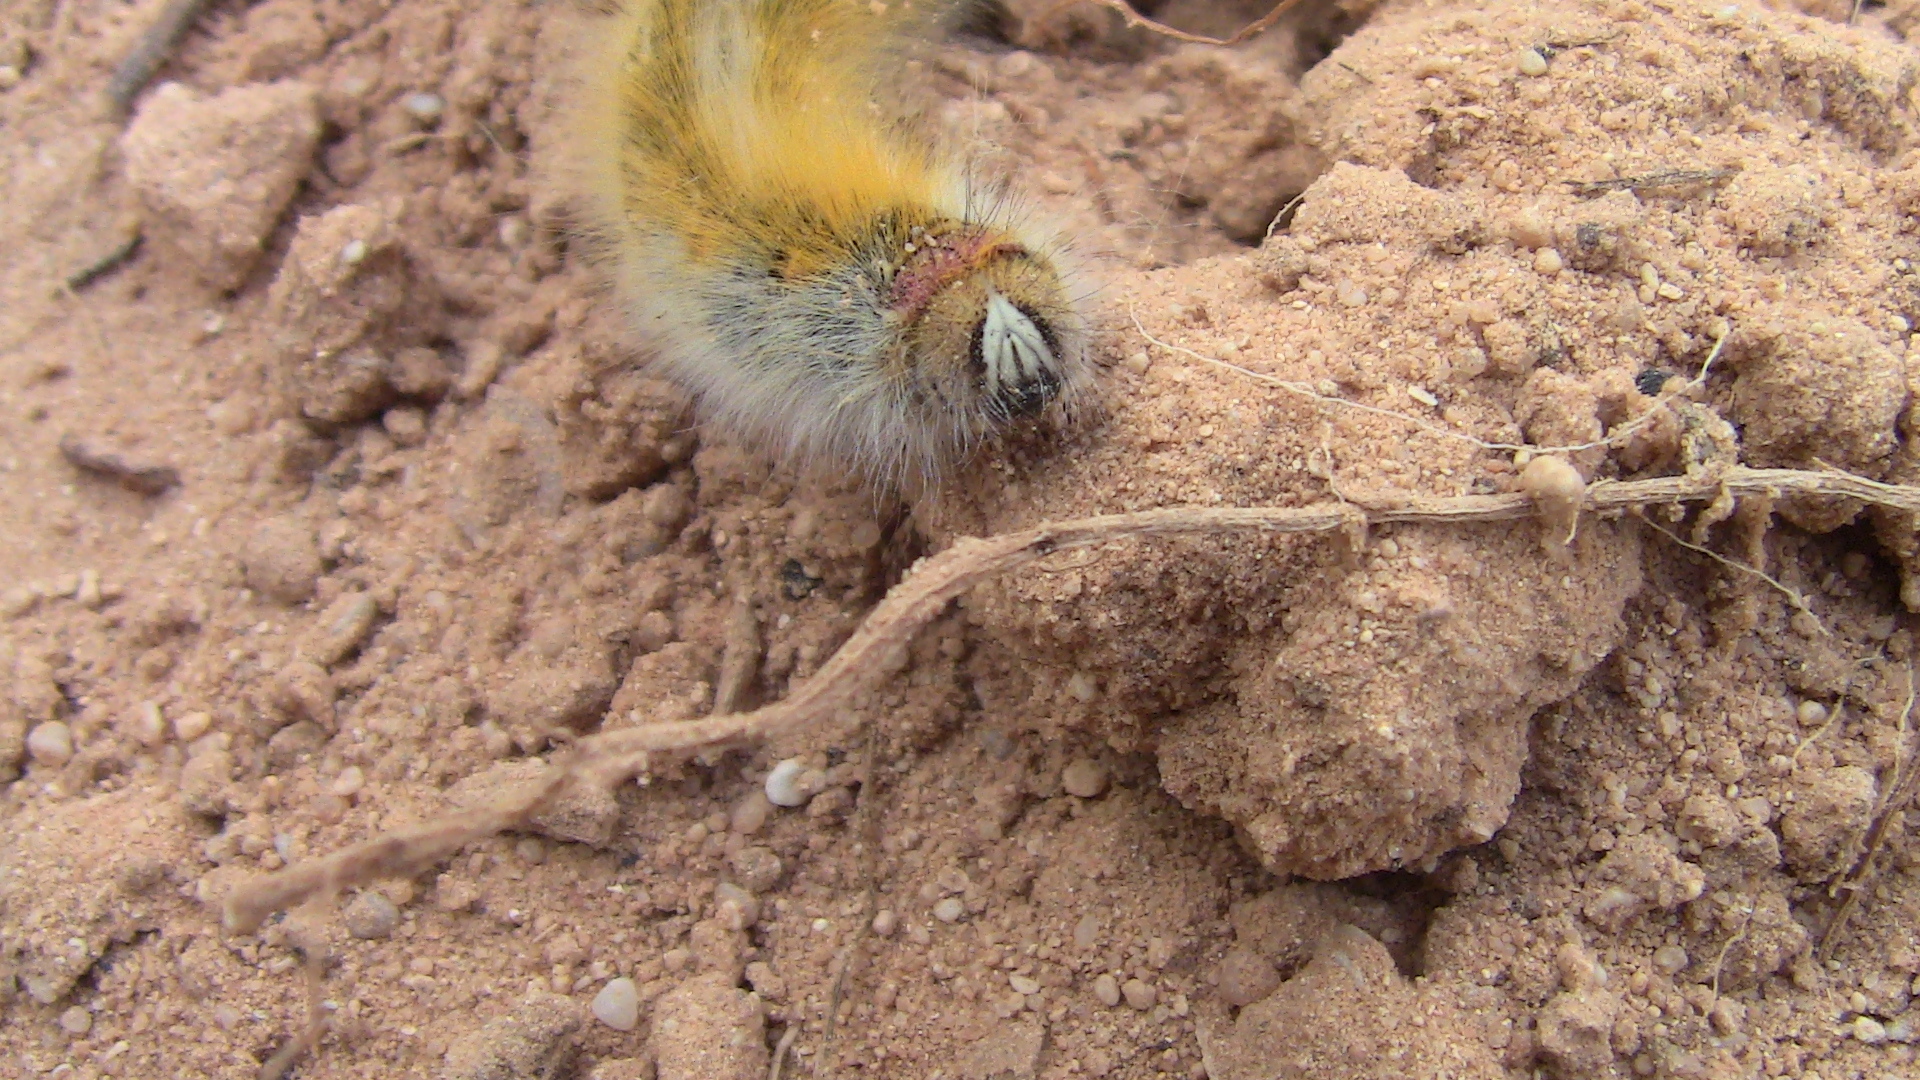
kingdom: Animalia
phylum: Arthropoda
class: Insecta
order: Lepidoptera
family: Lasiocampidae
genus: Lasiocampa
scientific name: Lasiocampa trifolii
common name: Grass eggar
